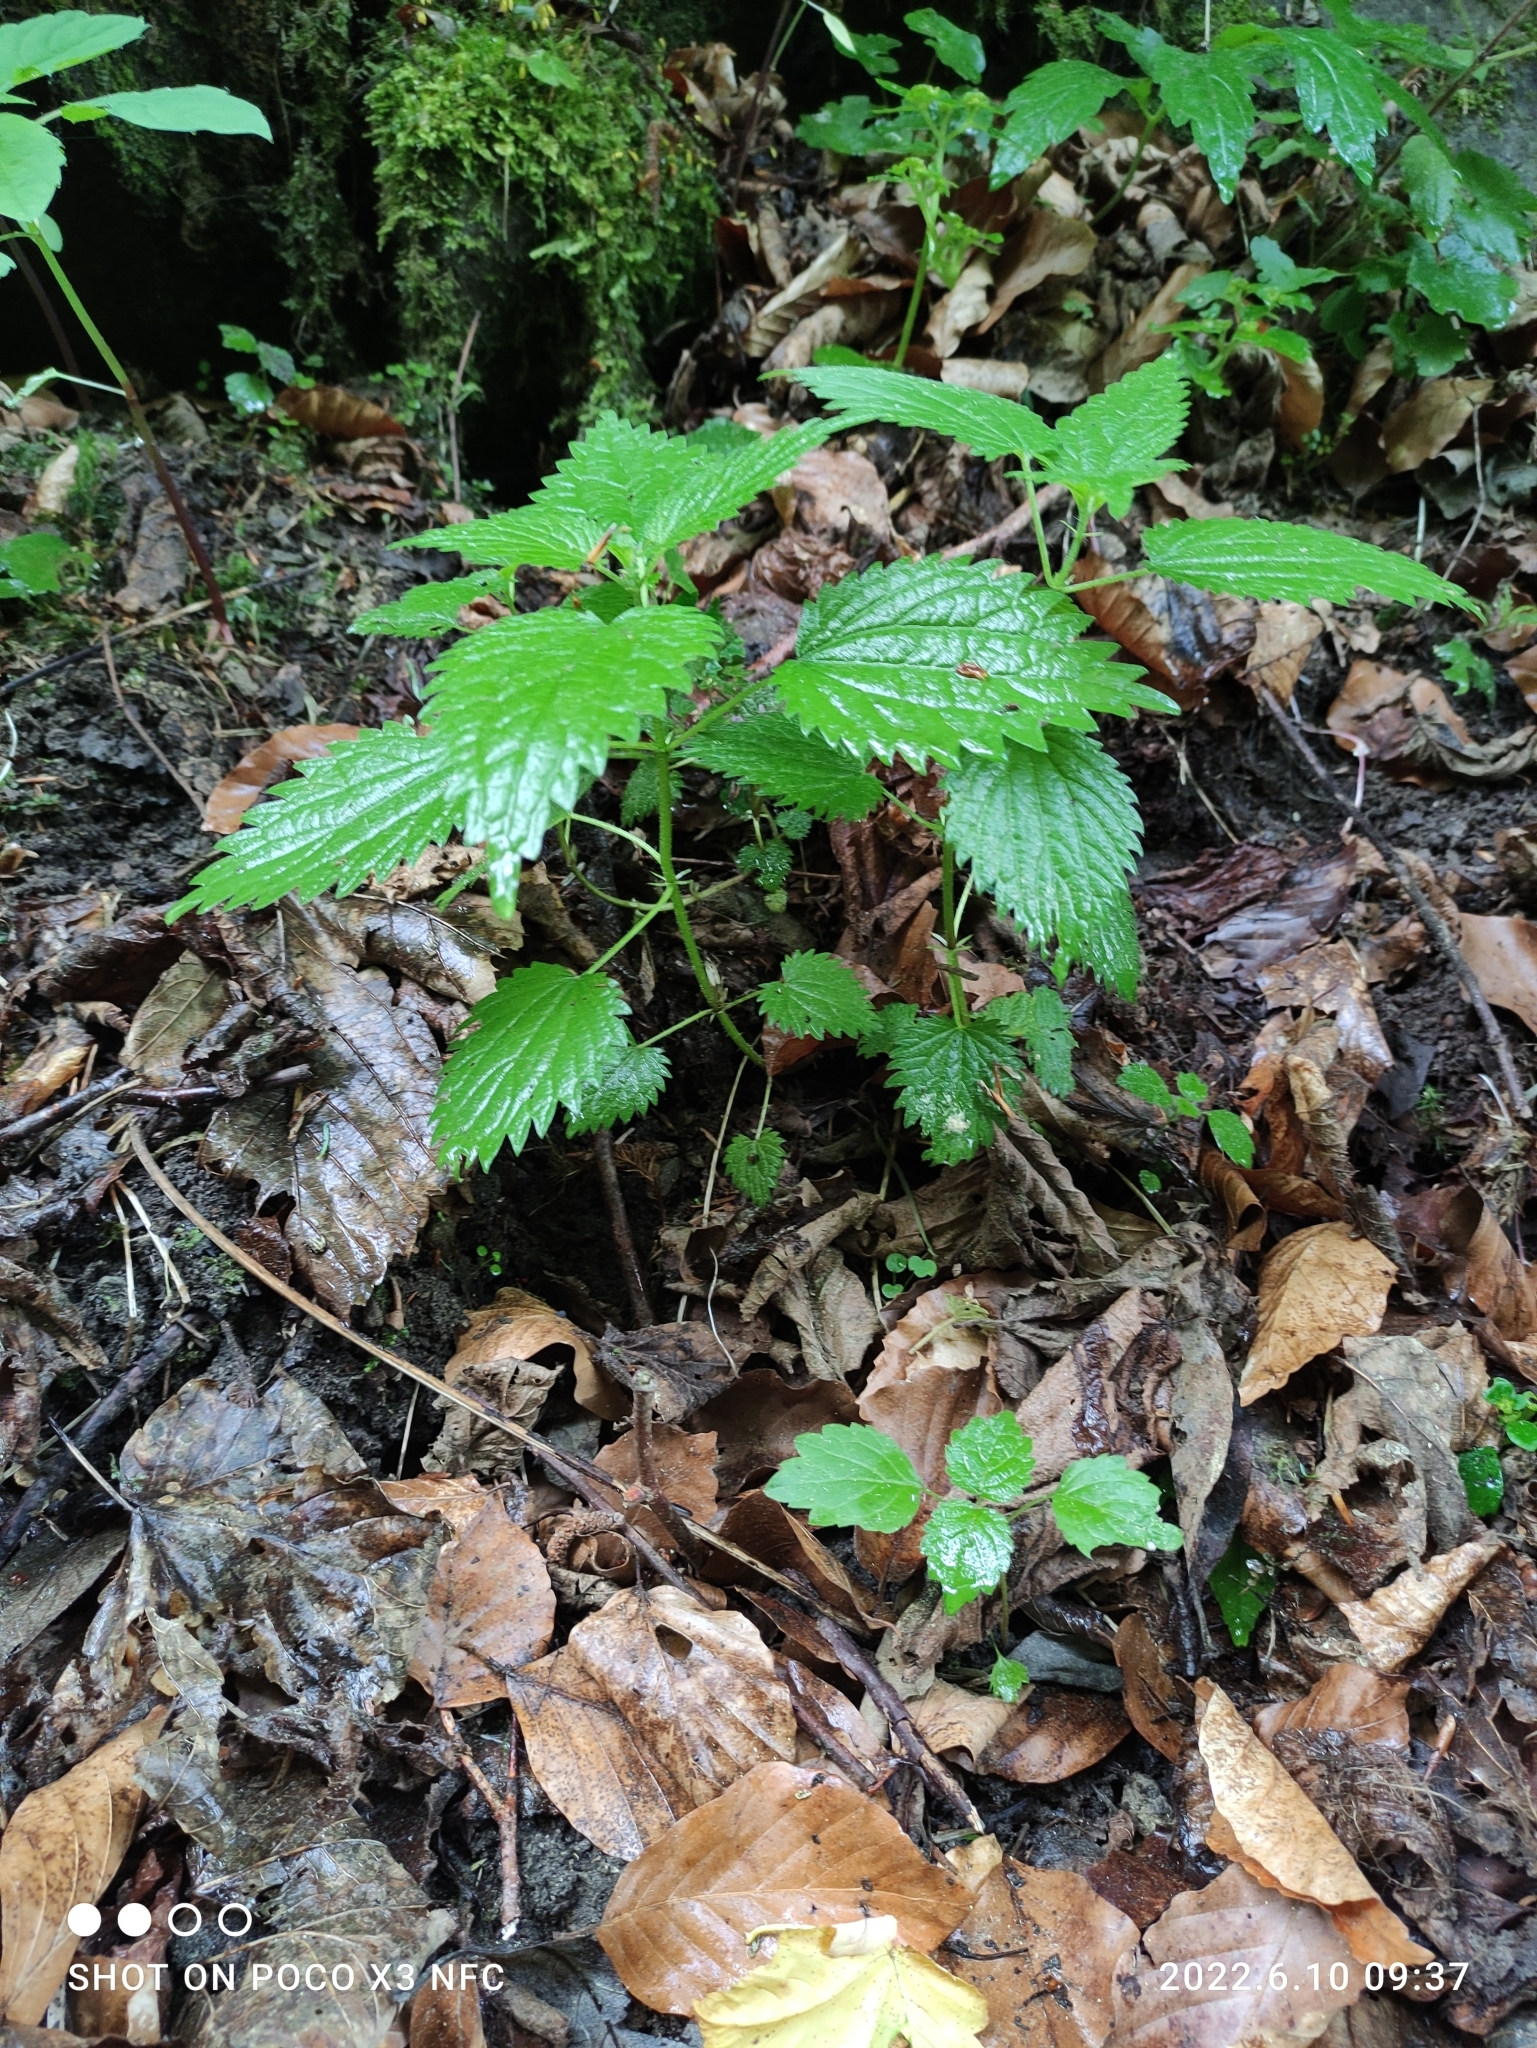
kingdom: Plantae
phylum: Tracheophyta
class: Magnoliopsida
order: Rosales
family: Urticaceae
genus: Urtica
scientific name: Urtica dioica
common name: Common nettle
